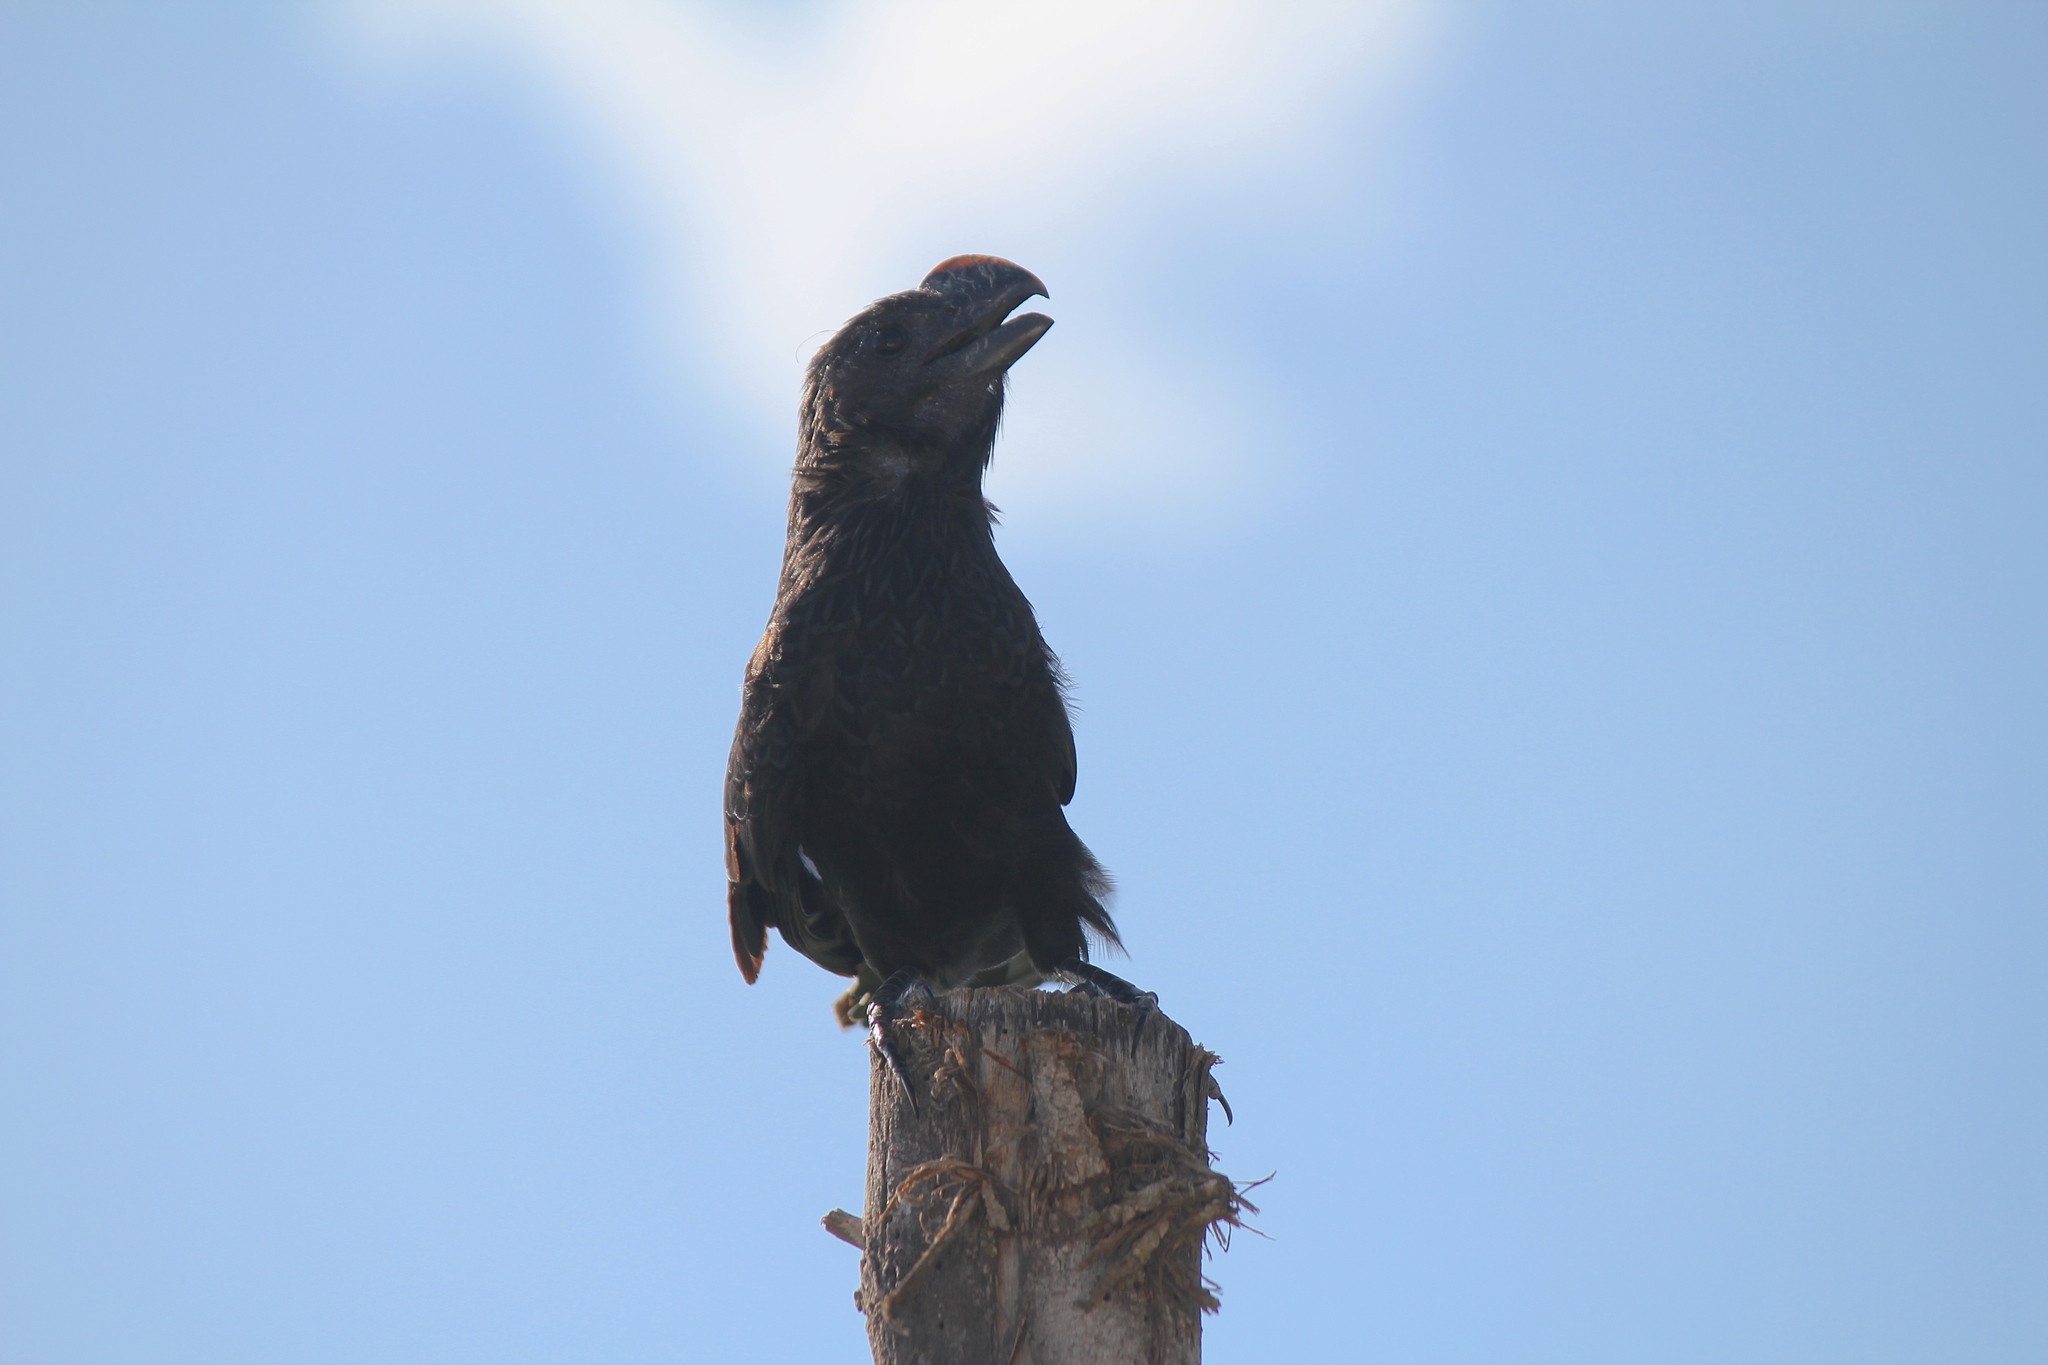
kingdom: Animalia
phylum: Chordata
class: Aves
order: Cuculiformes
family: Cuculidae
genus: Crotophaga
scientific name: Crotophaga ani
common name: Smooth-billed ani
